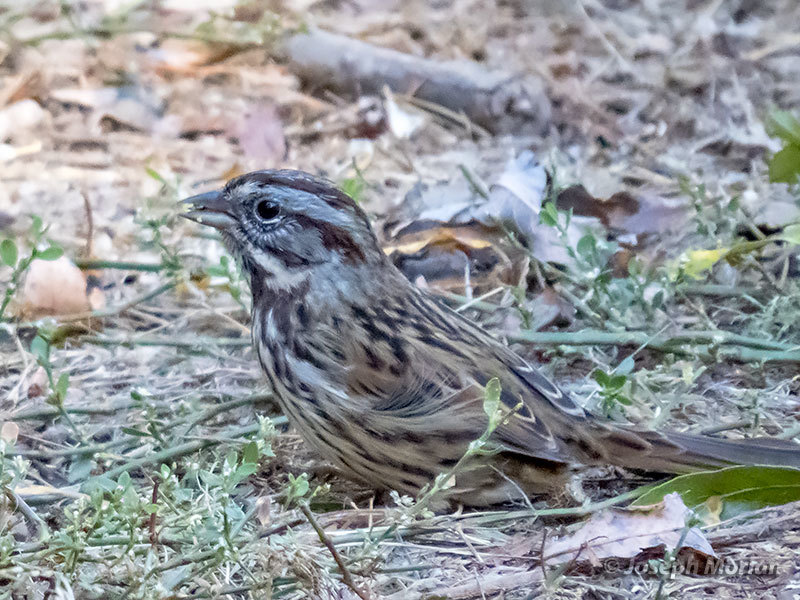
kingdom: Animalia
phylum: Chordata
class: Aves
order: Passeriformes
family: Passerellidae
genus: Melospiza
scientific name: Melospiza melodia
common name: Song sparrow
